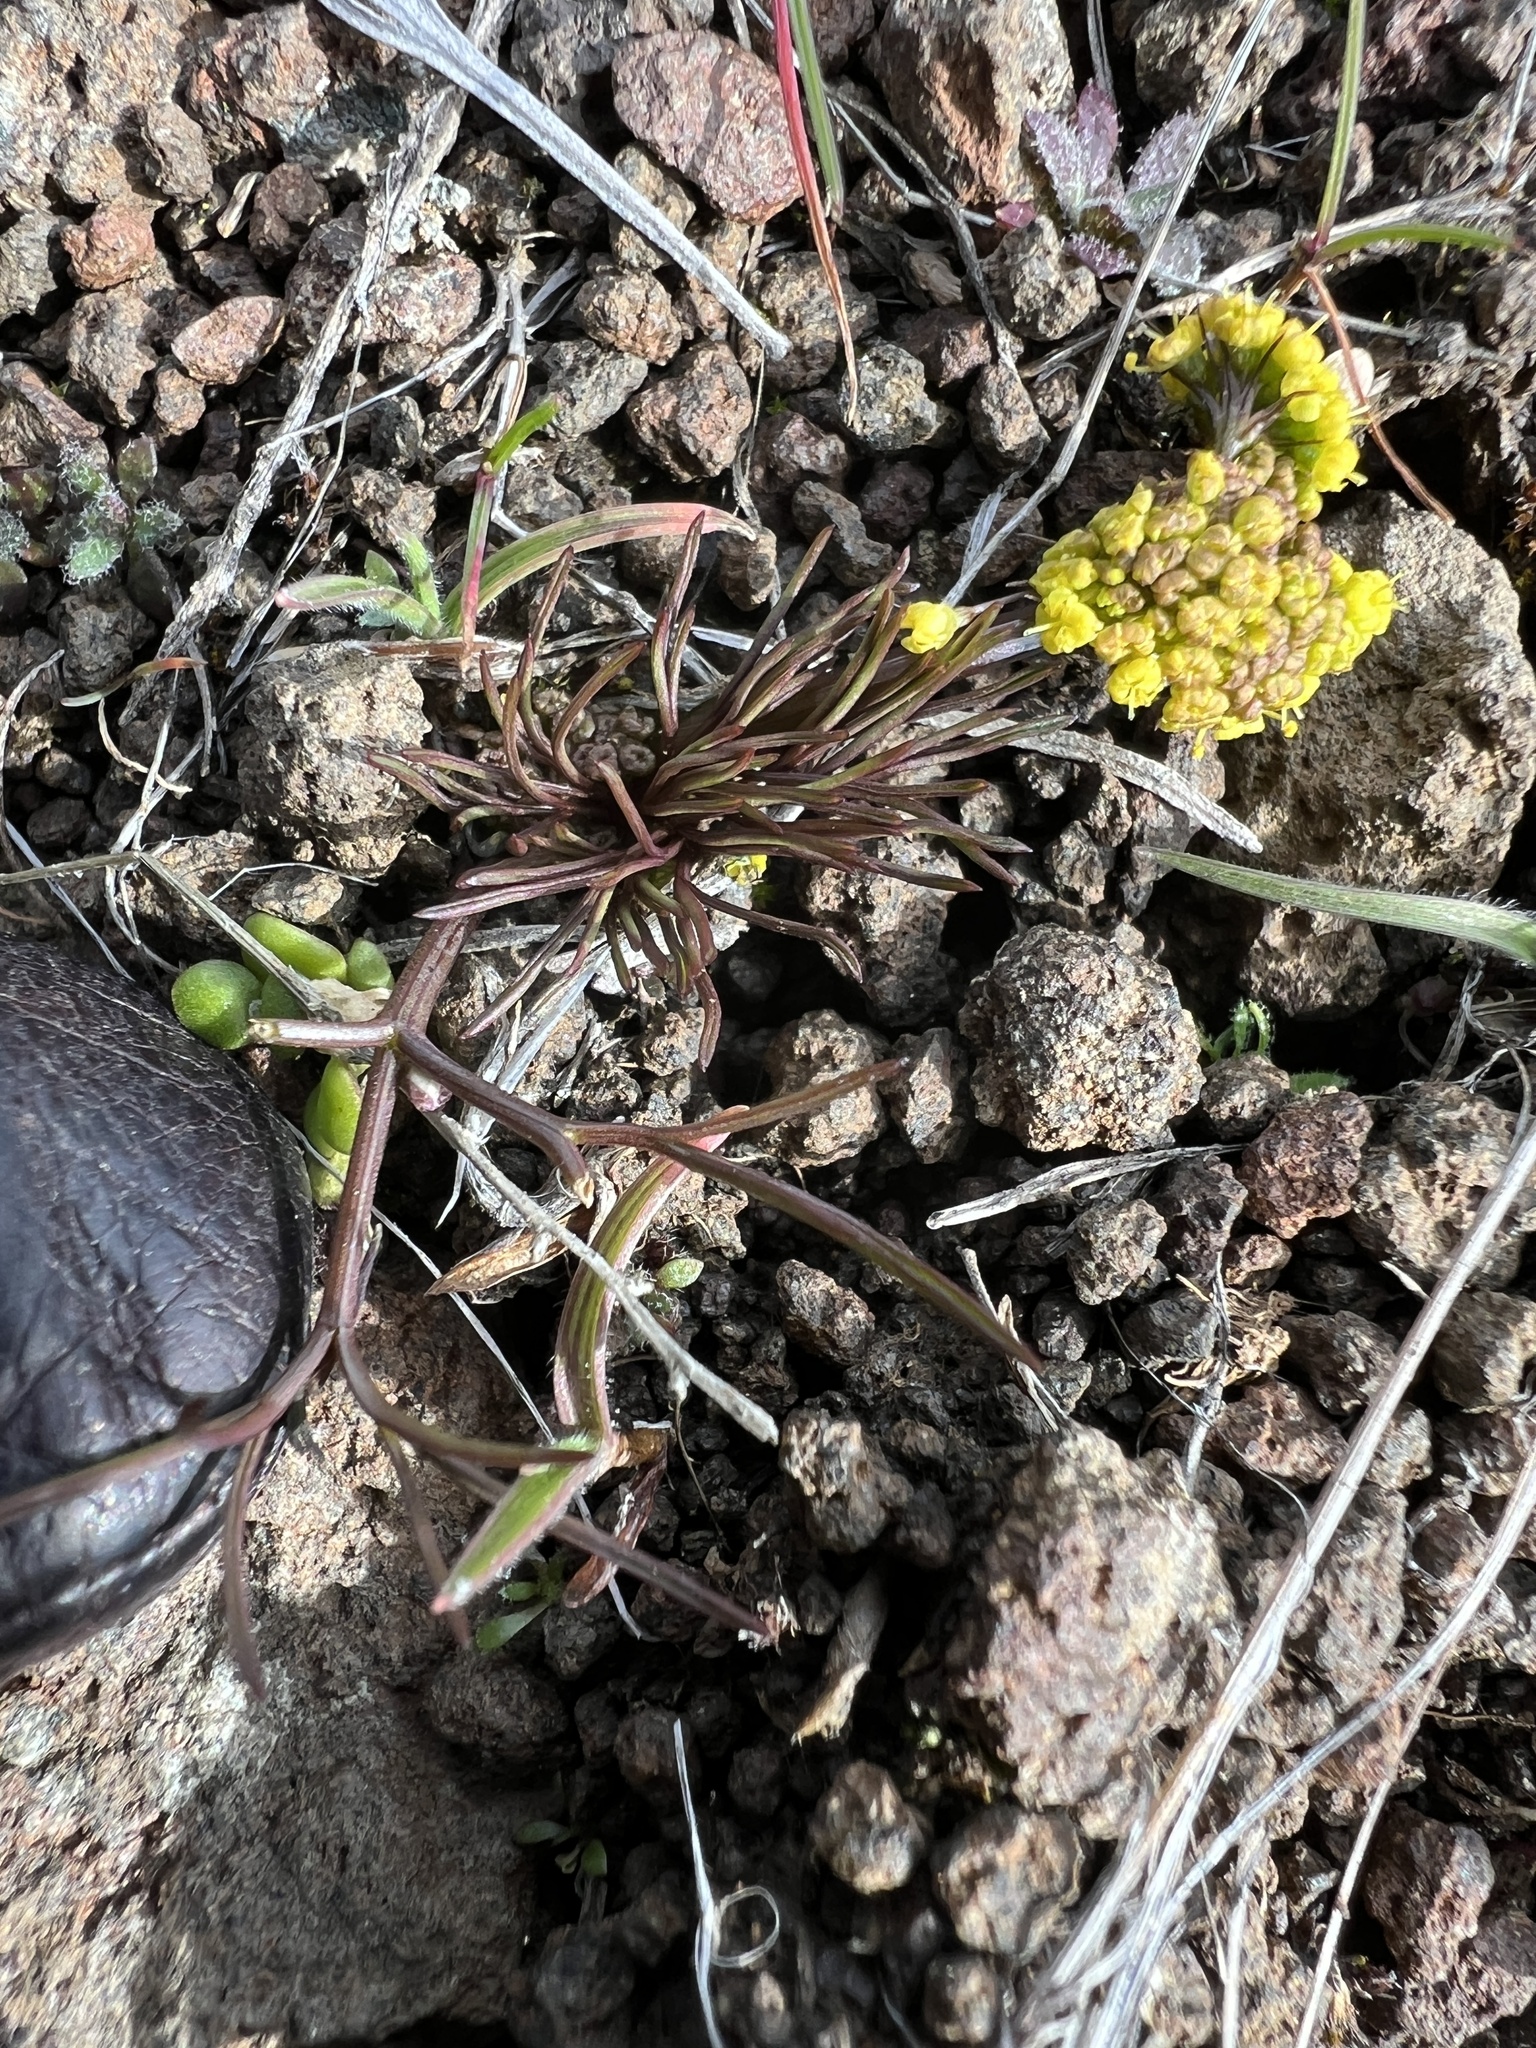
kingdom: Plantae
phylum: Tracheophyta
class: Magnoliopsida
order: Apiales
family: Apiaceae
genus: Lomatium
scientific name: Lomatium farinosum
